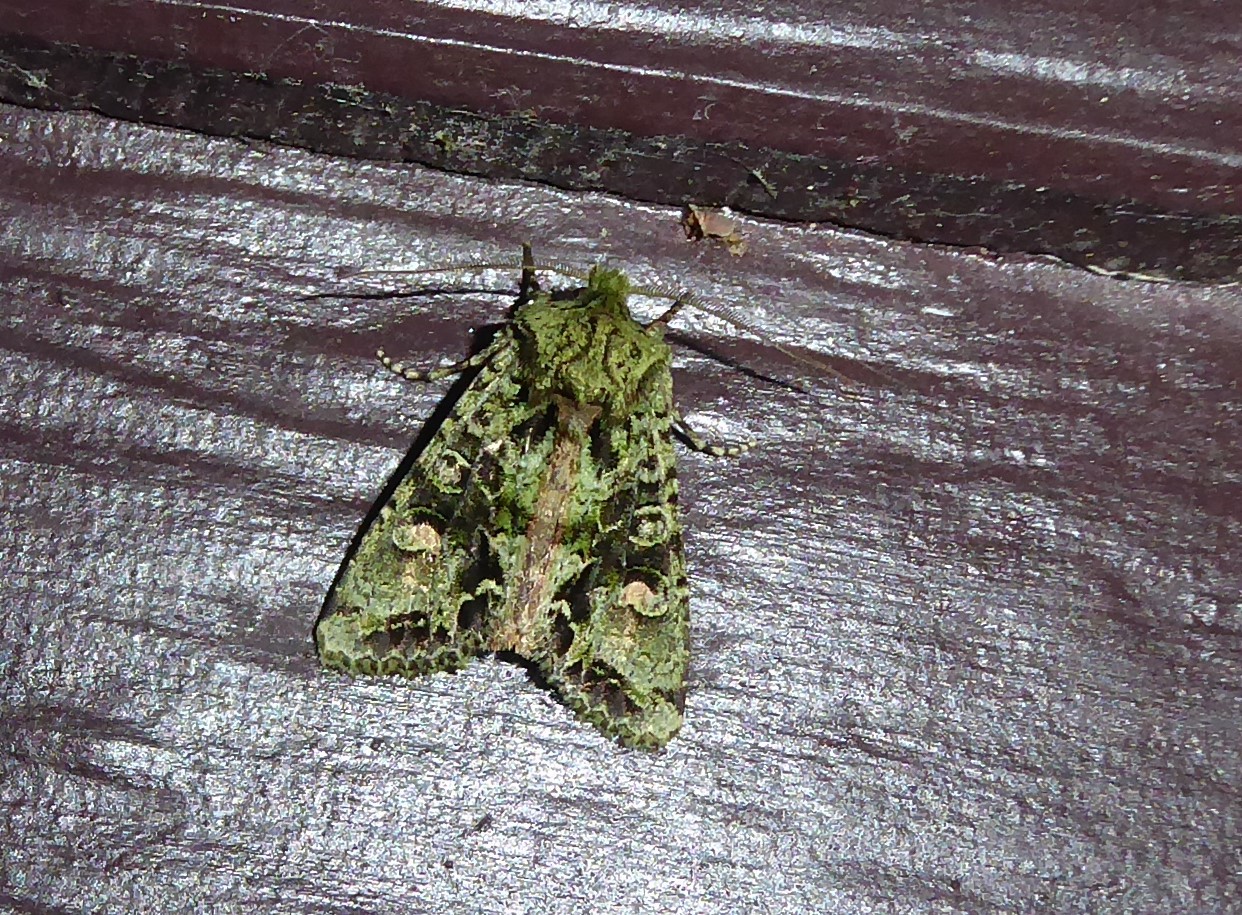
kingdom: Animalia
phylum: Arthropoda
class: Insecta
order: Lepidoptera
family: Noctuidae
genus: Ichneutica
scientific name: Ichneutica
